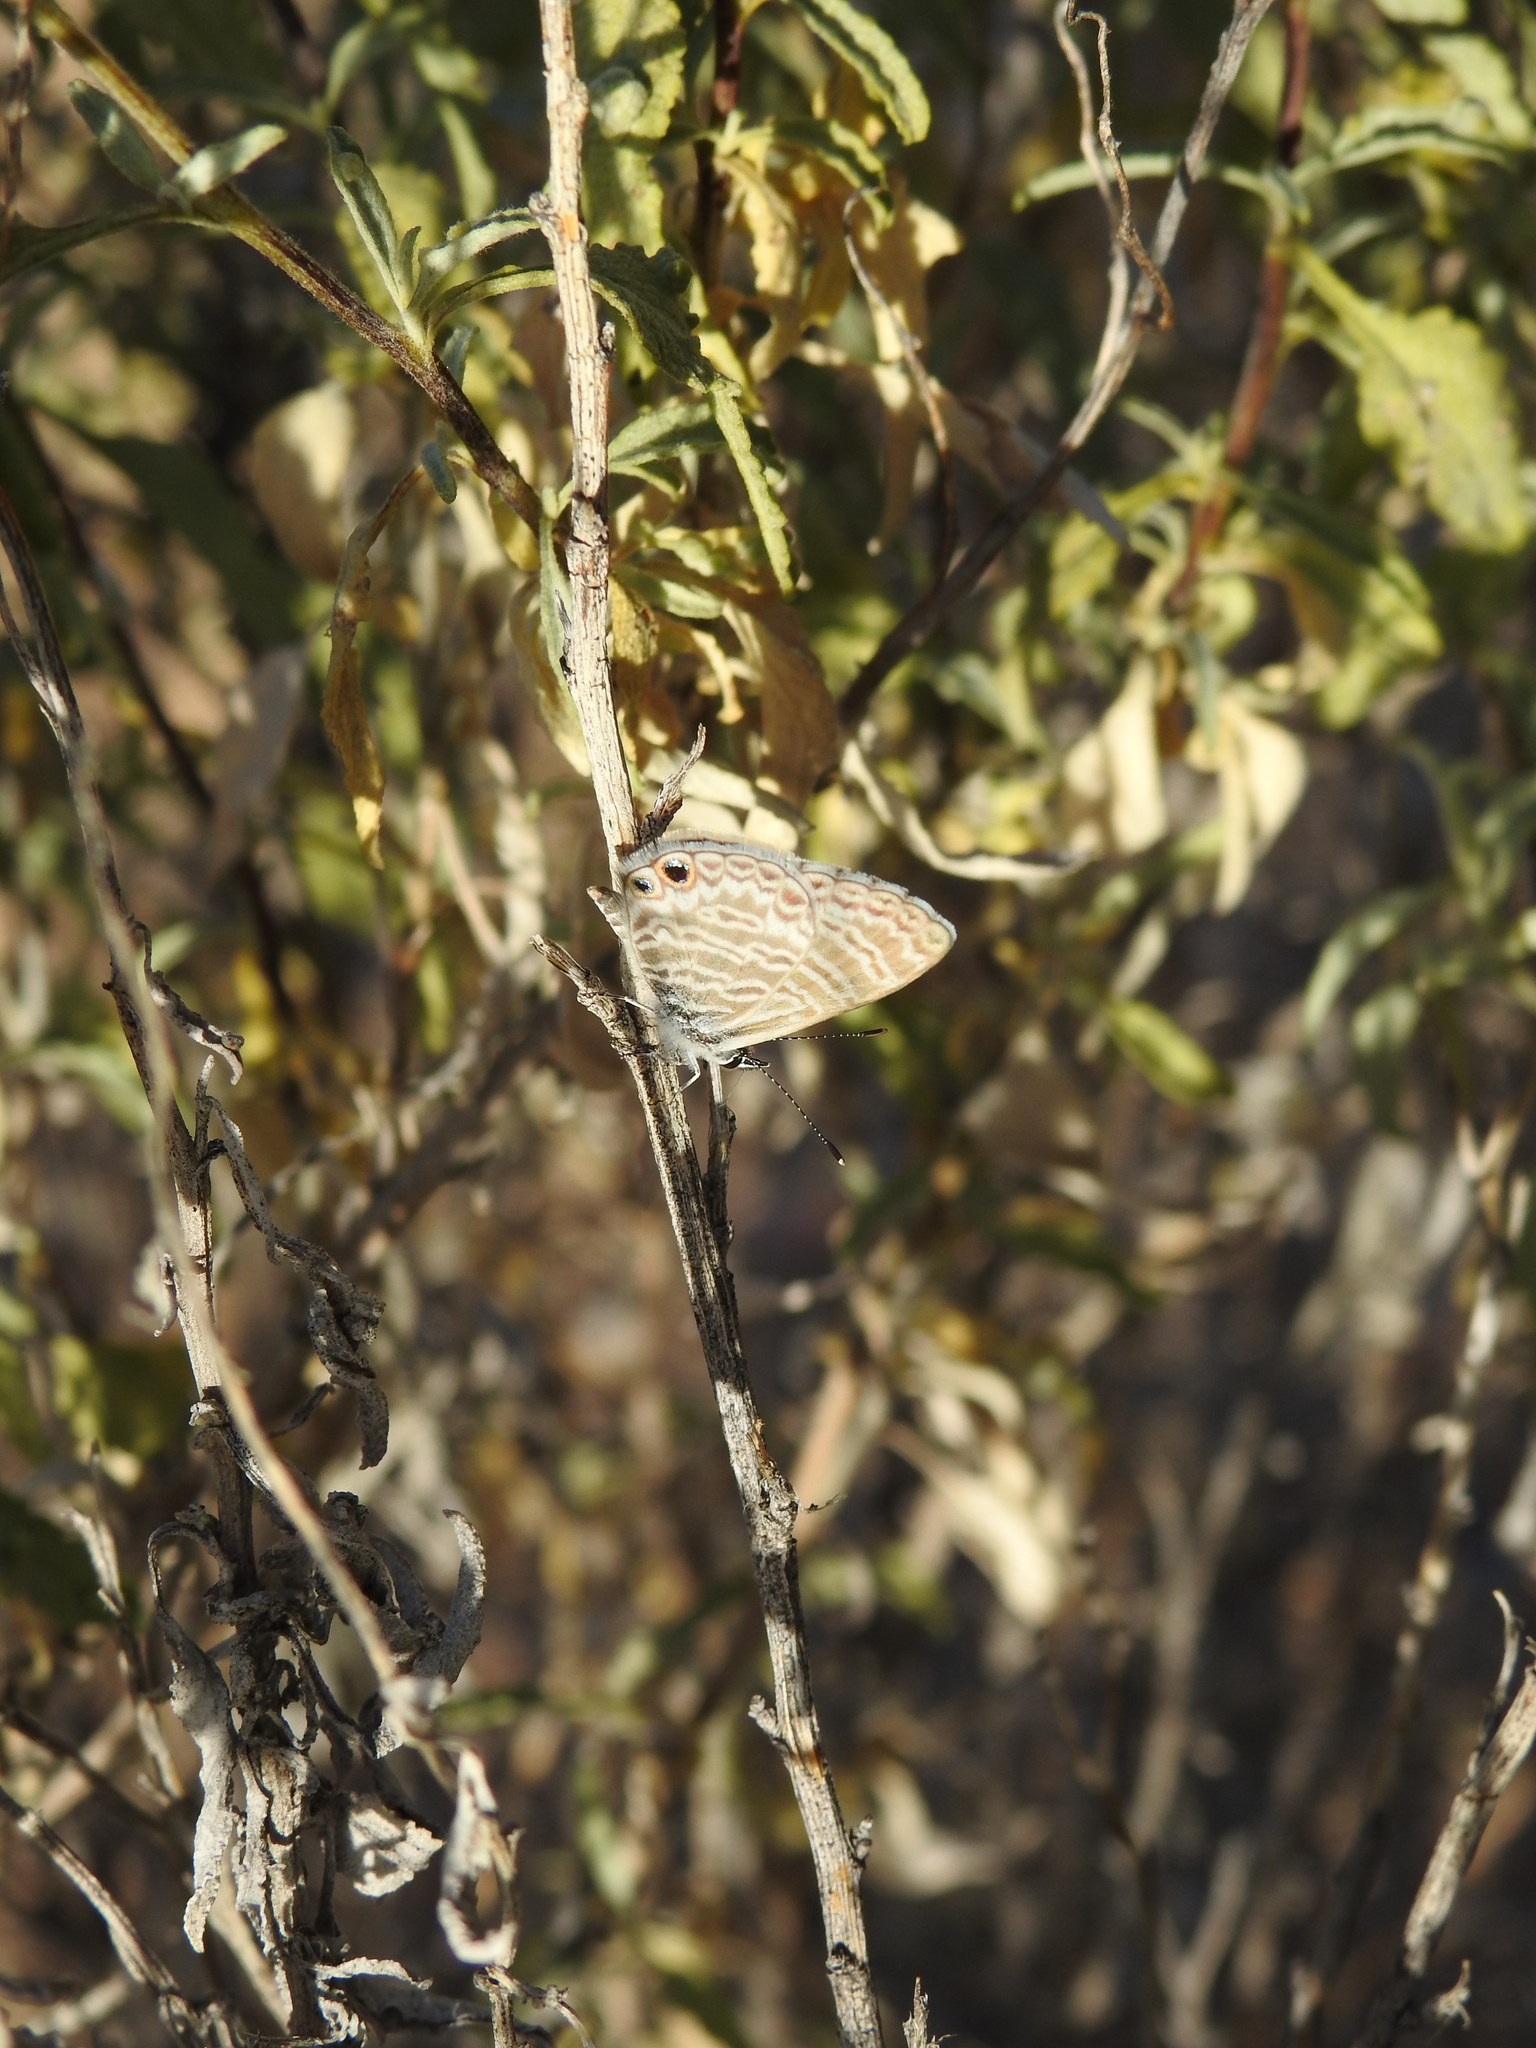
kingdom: Animalia
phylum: Arthropoda
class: Insecta
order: Lepidoptera
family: Lycaenidae
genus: Leptotes
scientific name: Leptotes marina
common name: Marine blue
